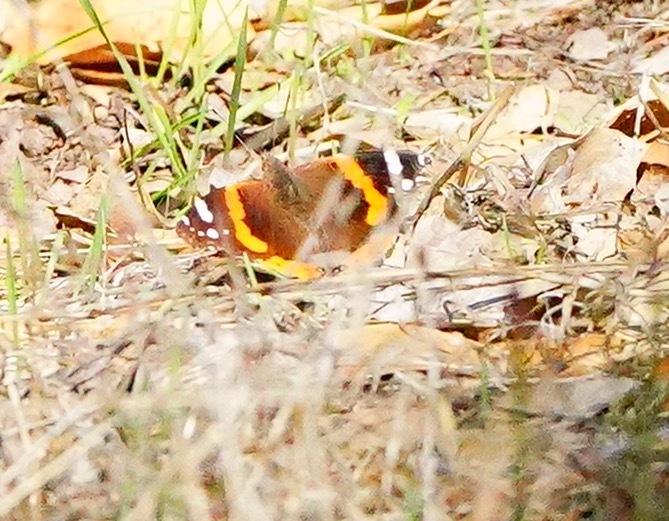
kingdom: Animalia
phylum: Arthropoda
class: Insecta
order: Lepidoptera
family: Nymphalidae
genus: Vanessa
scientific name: Vanessa atalanta
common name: Red admiral
